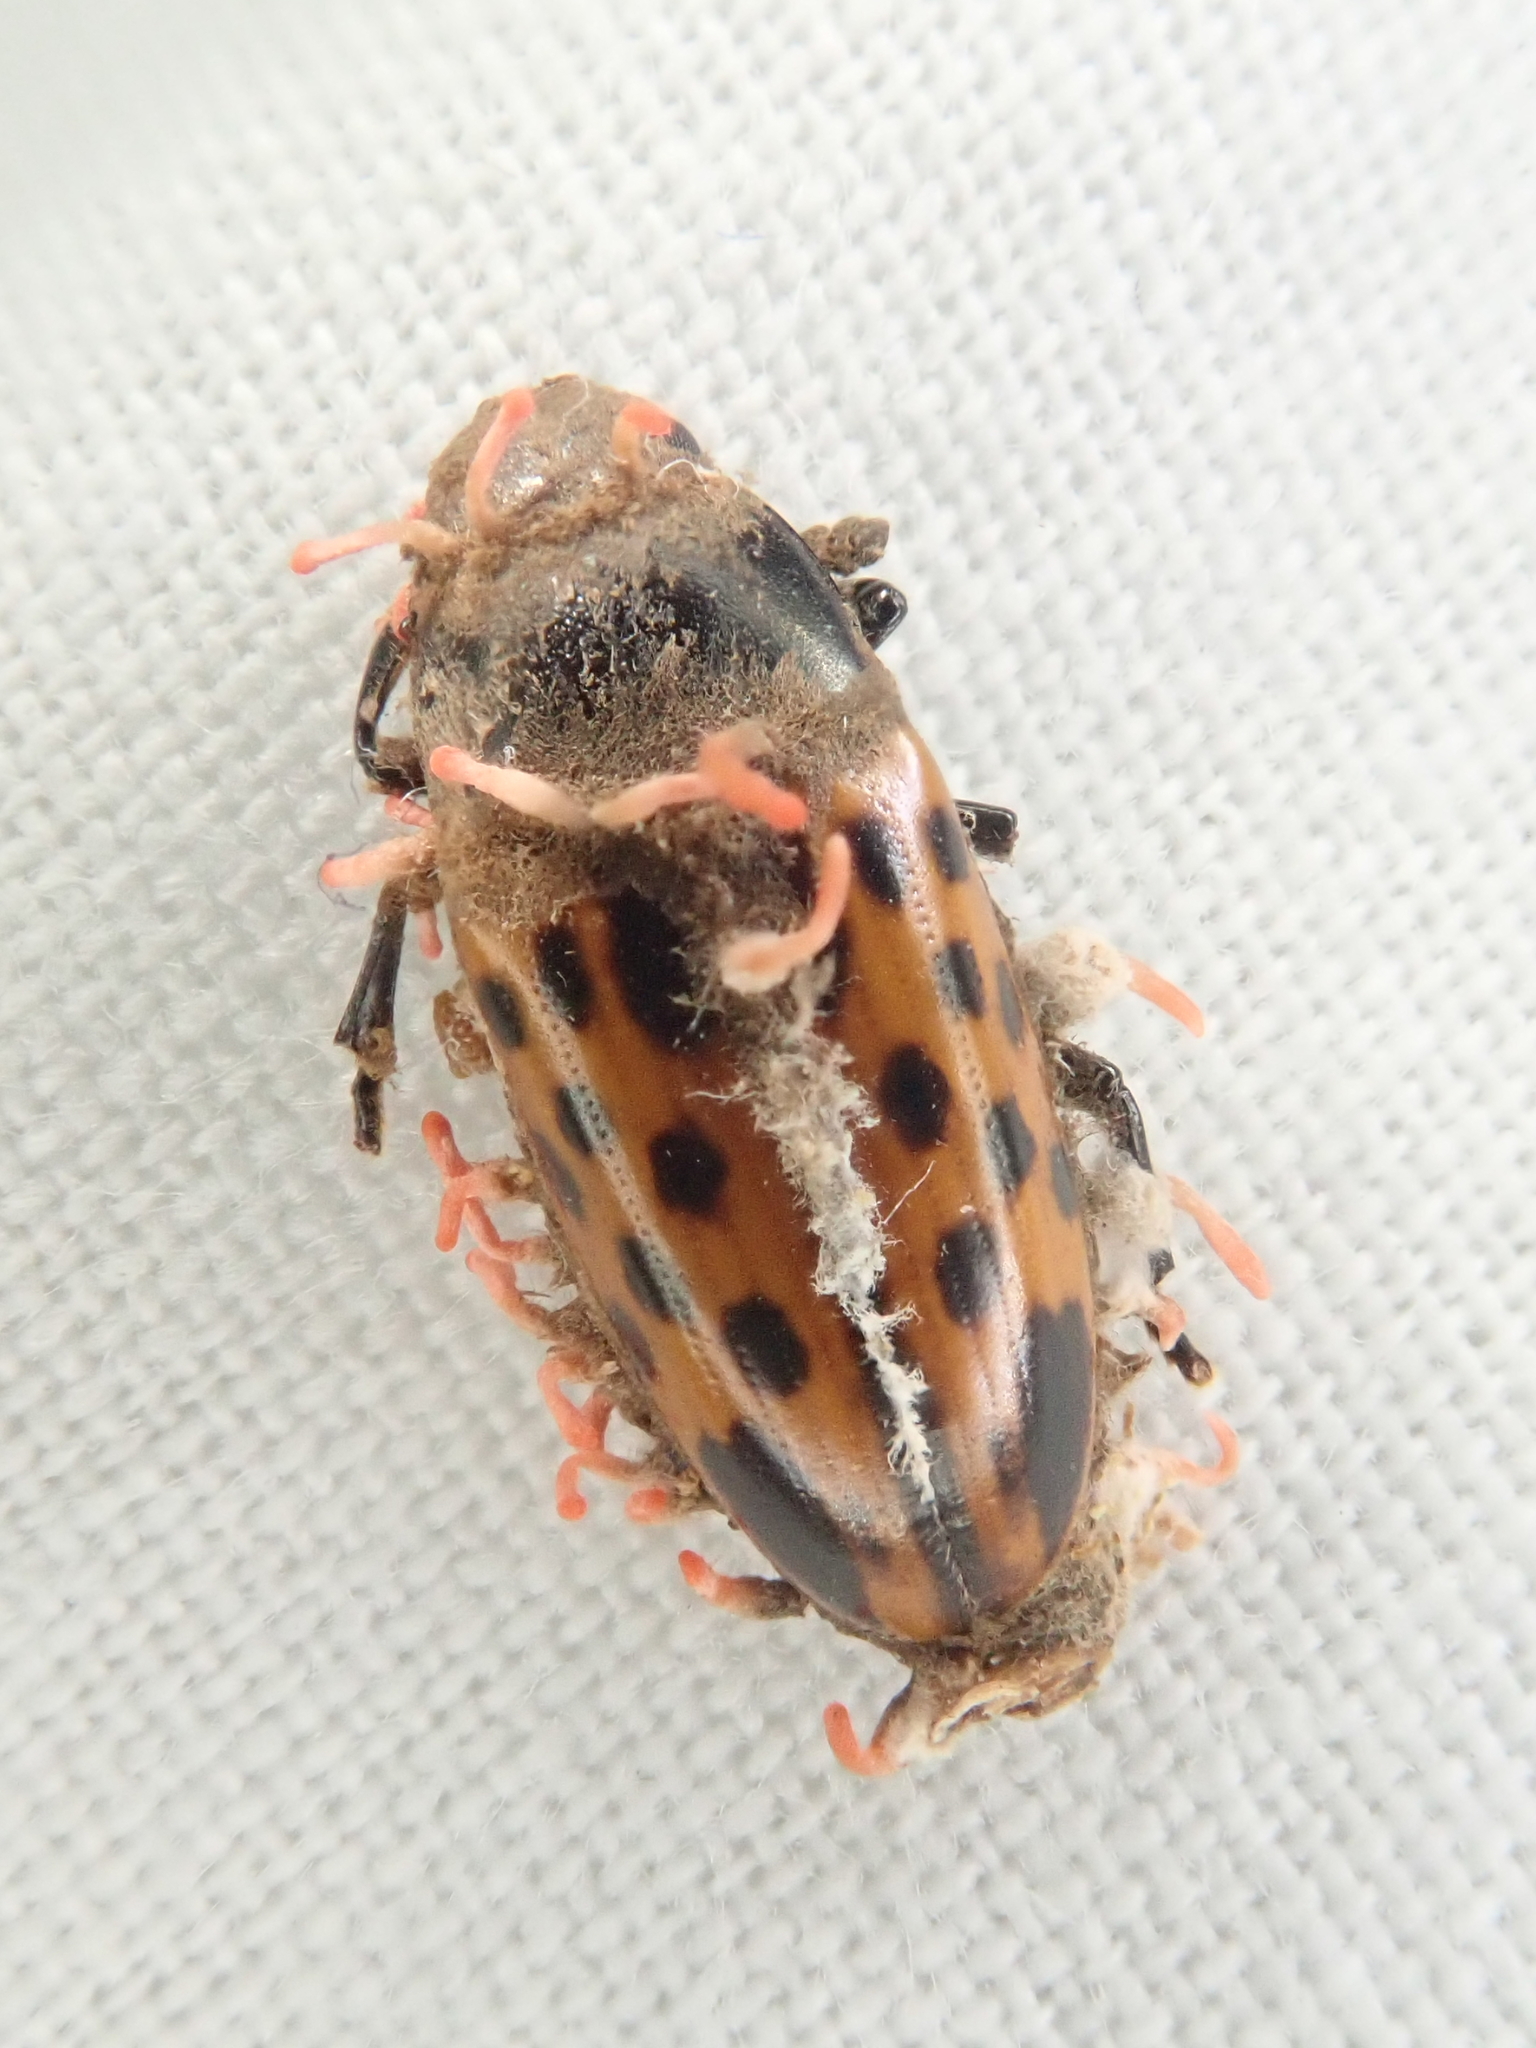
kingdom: Animalia
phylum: Arthropoda
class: Insecta
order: Coleoptera
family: Erotylidae
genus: Pselaphacus
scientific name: Pselaphacus signatus
